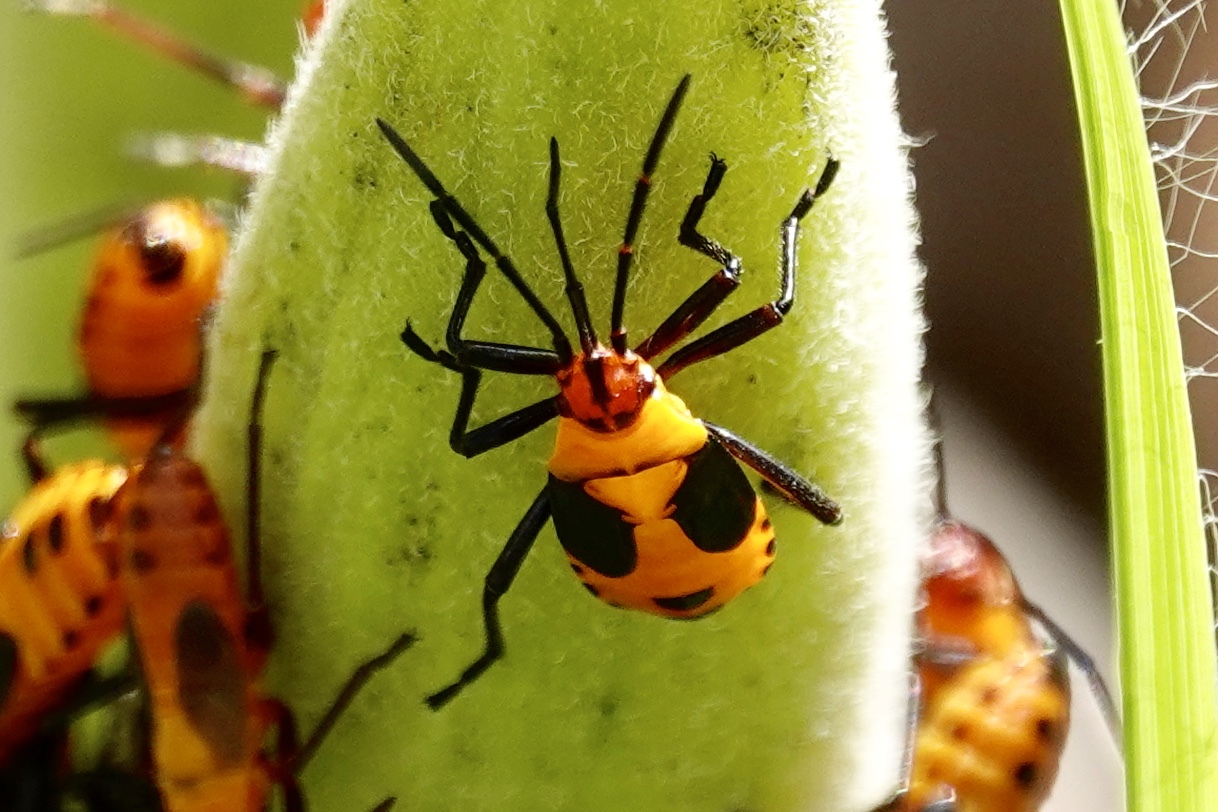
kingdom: Animalia
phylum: Arthropoda
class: Insecta
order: Hemiptera
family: Lygaeidae
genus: Oncopeltus
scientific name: Oncopeltus fasciatus
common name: Large milkweed bug
